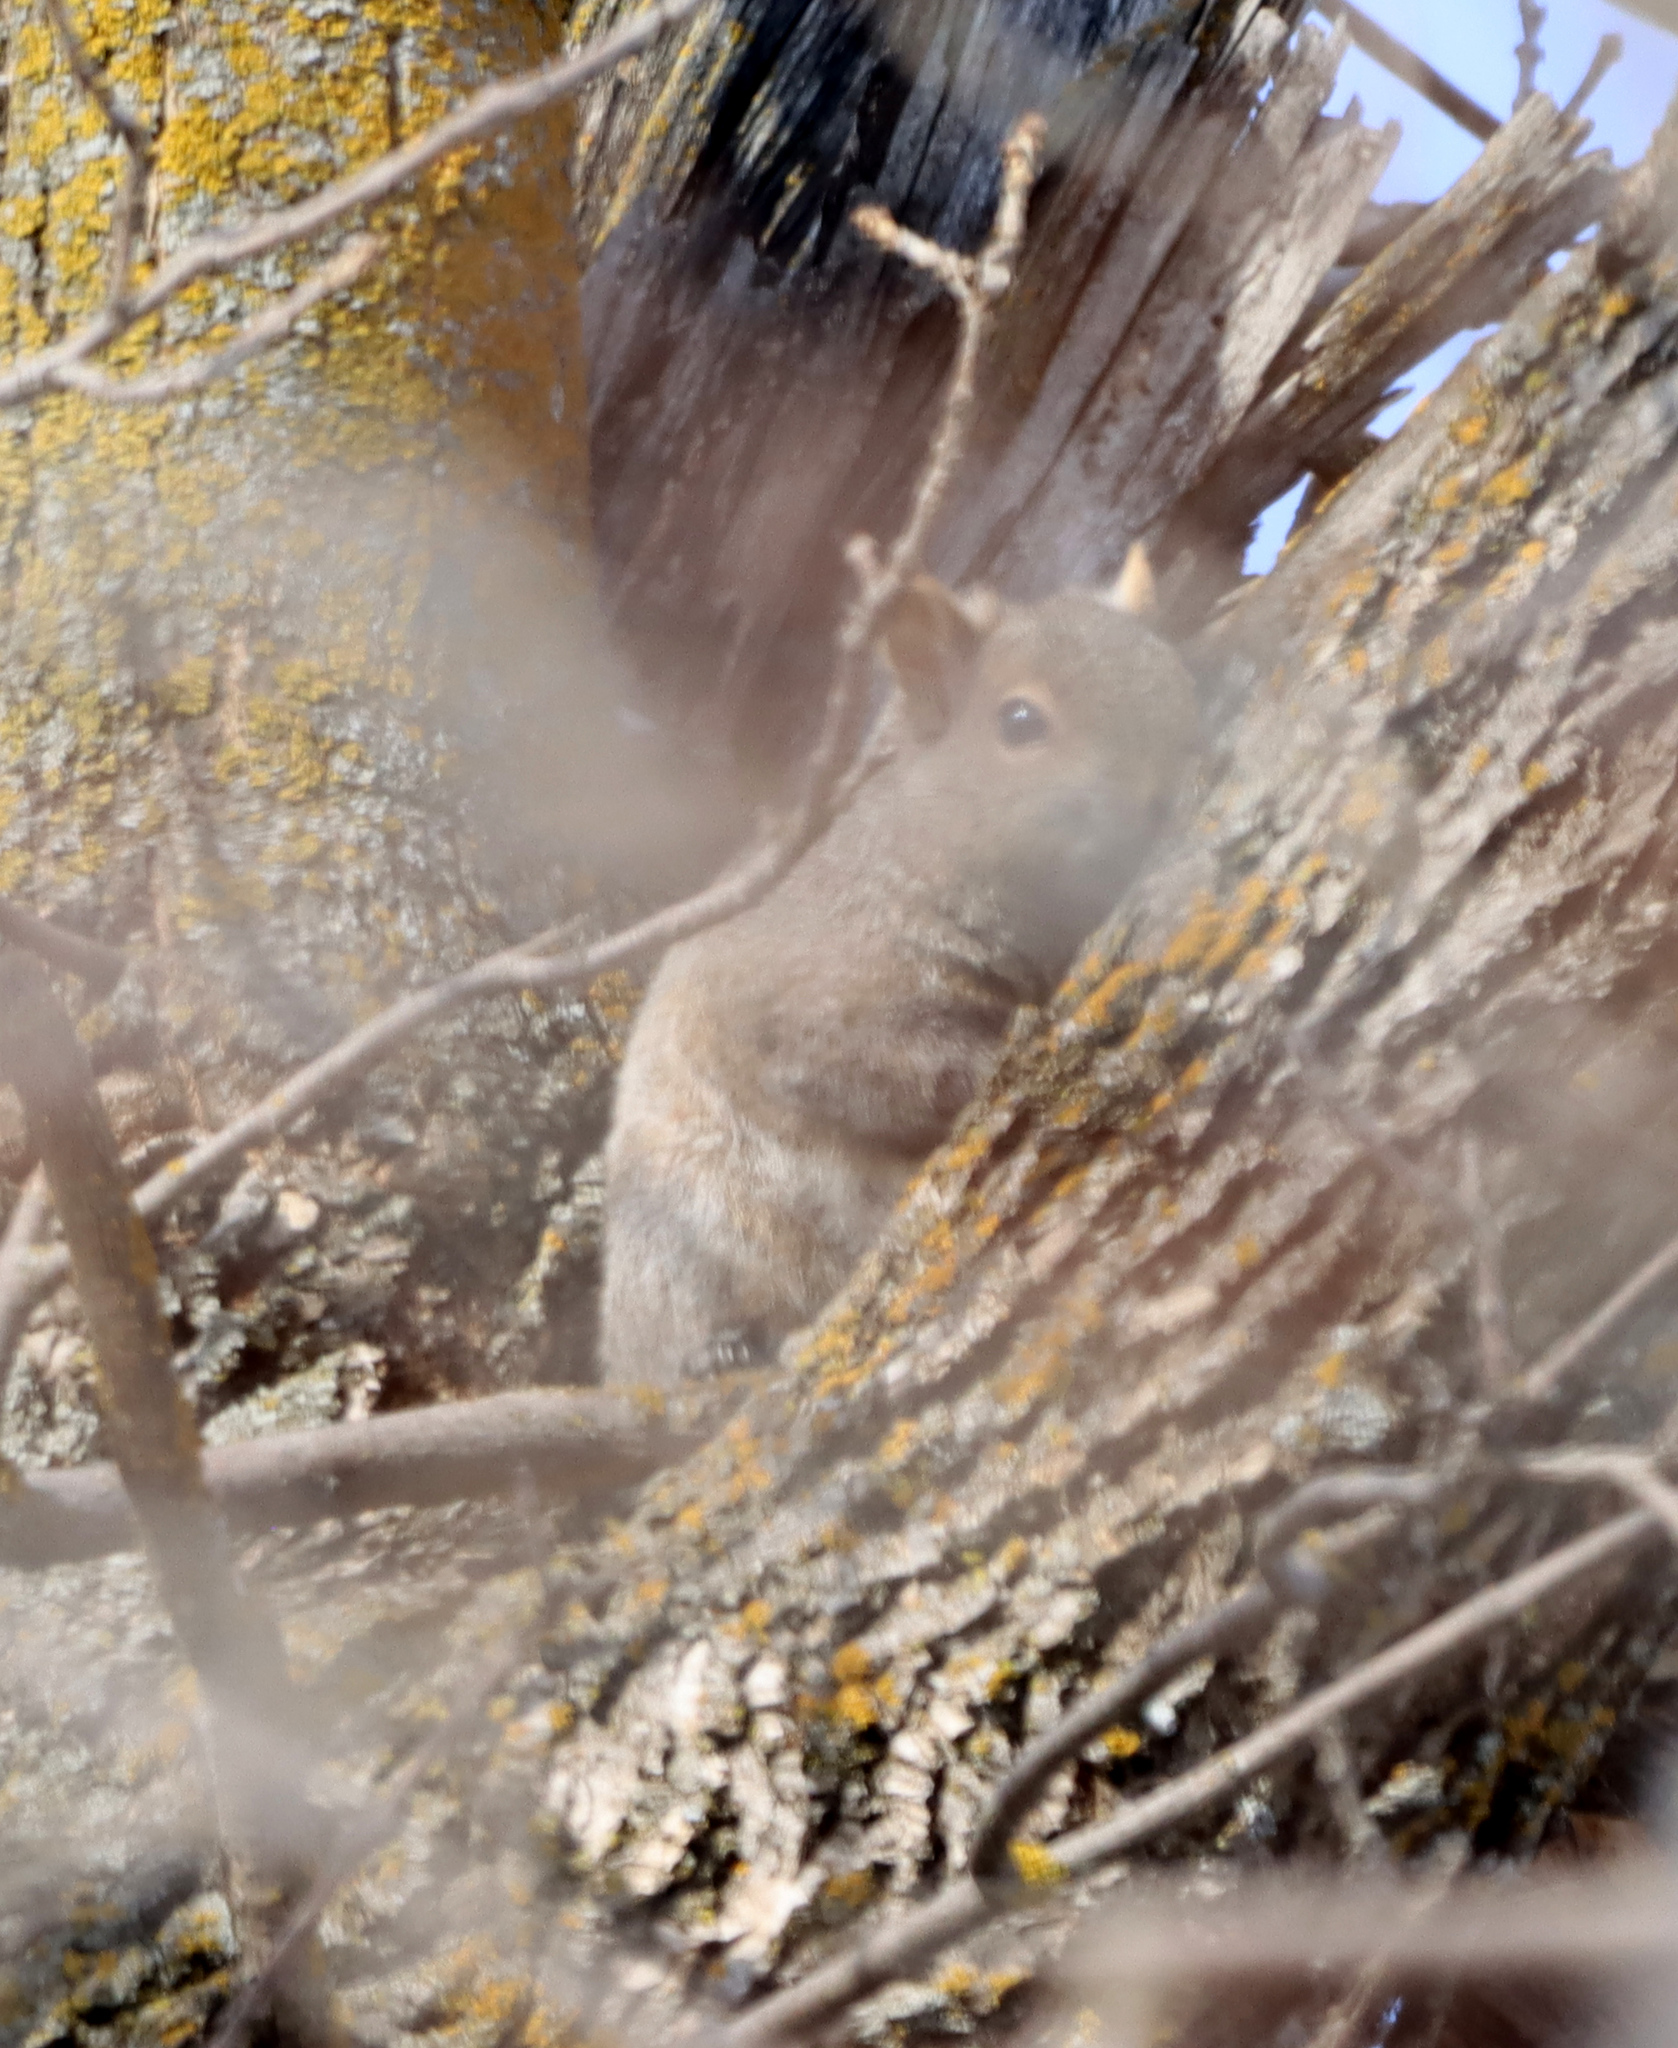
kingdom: Animalia
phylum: Chordata
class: Mammalia
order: Rodentia
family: Sciuridae
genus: Sciurus
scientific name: Sciurus carolinensis
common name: Eastern gray squirrel
